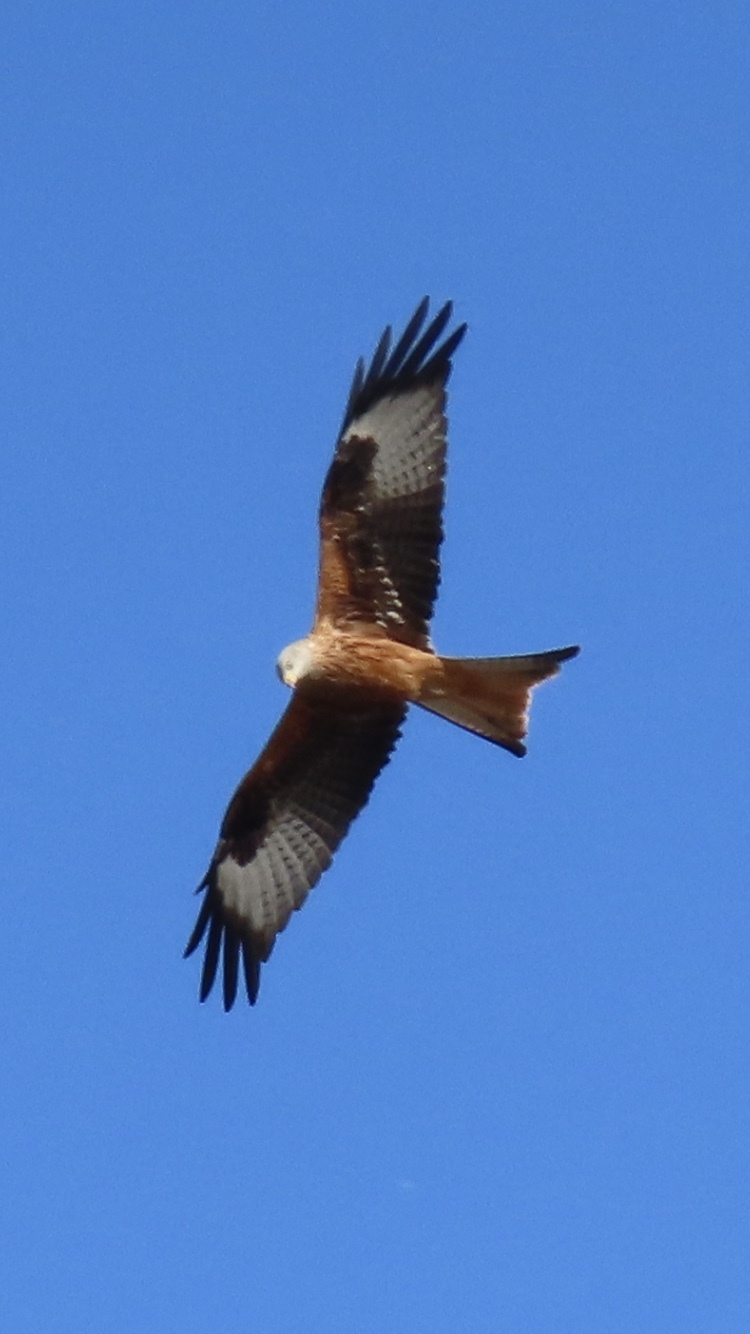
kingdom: Animalia
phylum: Chordata
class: Aves
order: Accipitriformes
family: Accipitridae
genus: Milvus
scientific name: Milvus milvus
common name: Red kite
